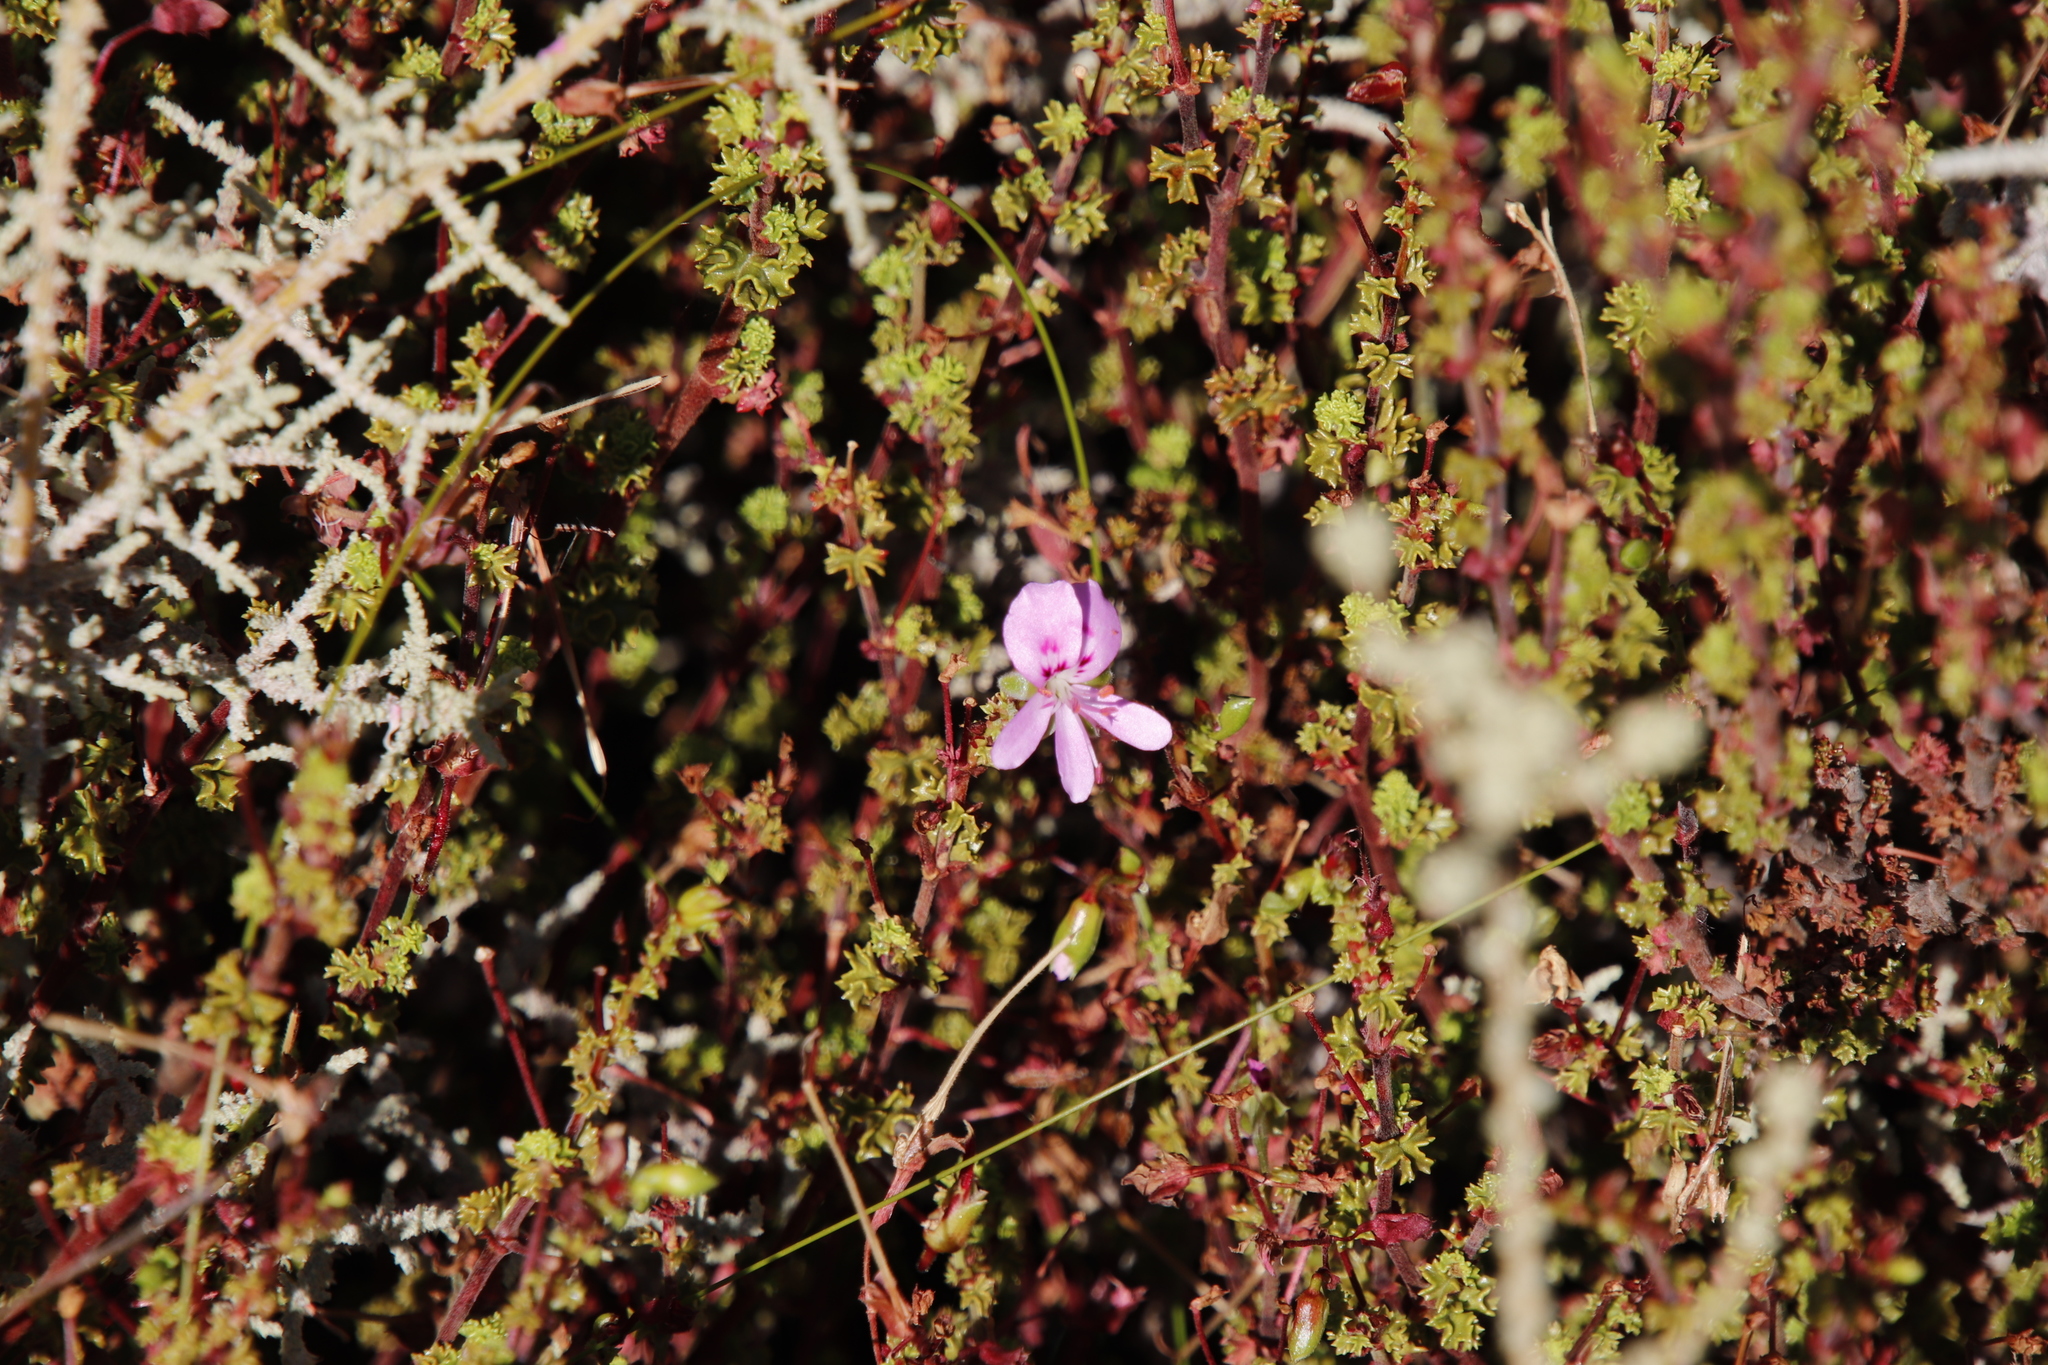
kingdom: Plantae
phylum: Tracheophyta
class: Magnoliopsida
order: Geraniales
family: Geraniaceae
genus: Pelargonium
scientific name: Pelargonium englerianum
